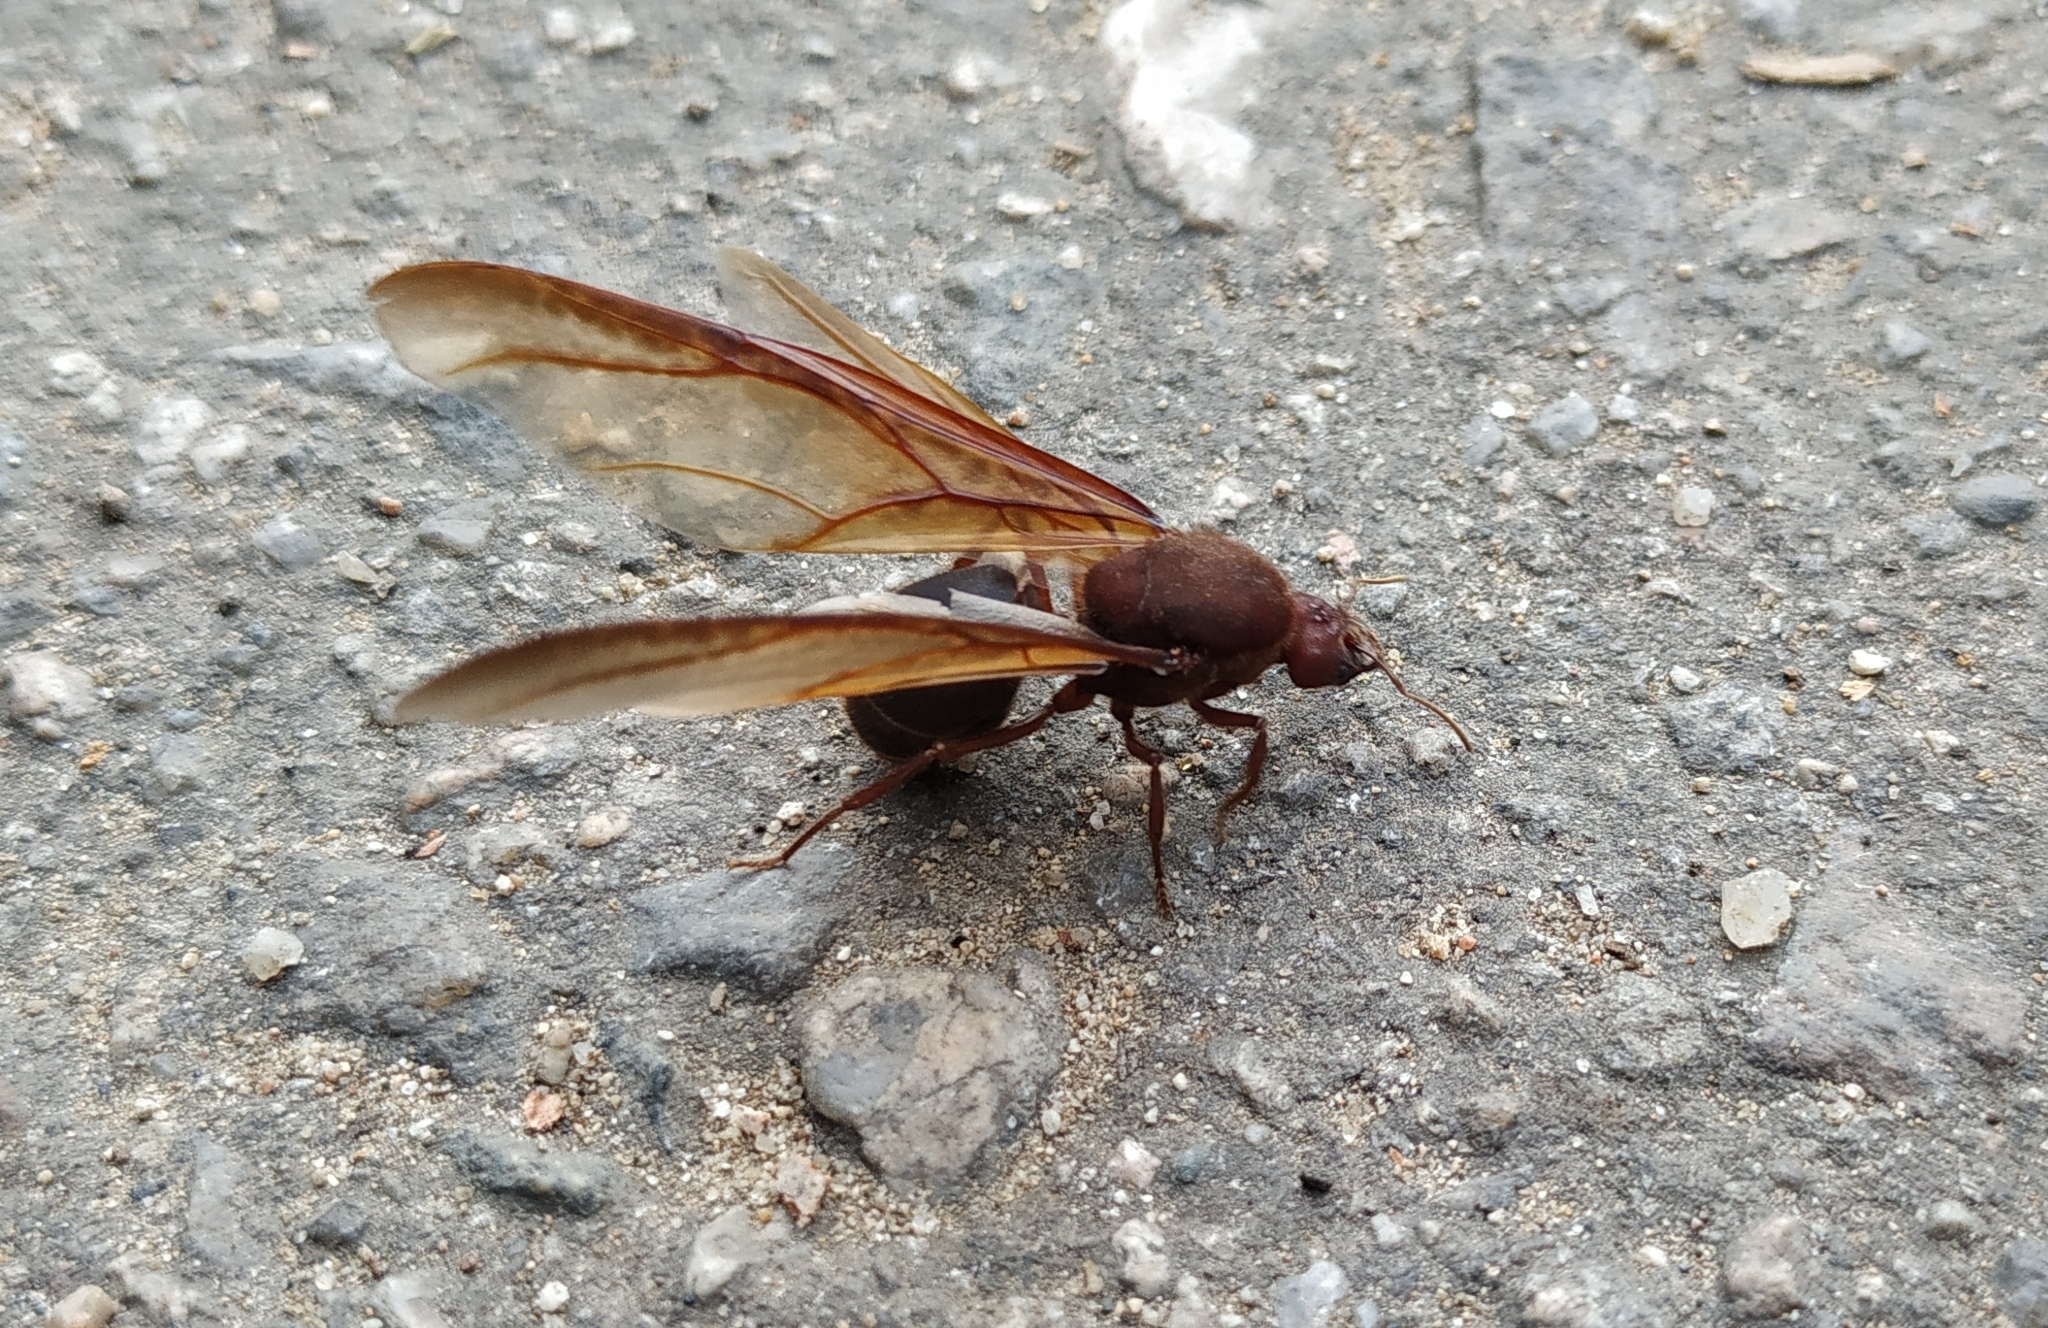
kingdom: Animalia
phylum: Arthropoda
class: Insecta
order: Hymenoptera
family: Formicidae
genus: Atta
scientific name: Atta mexicana
